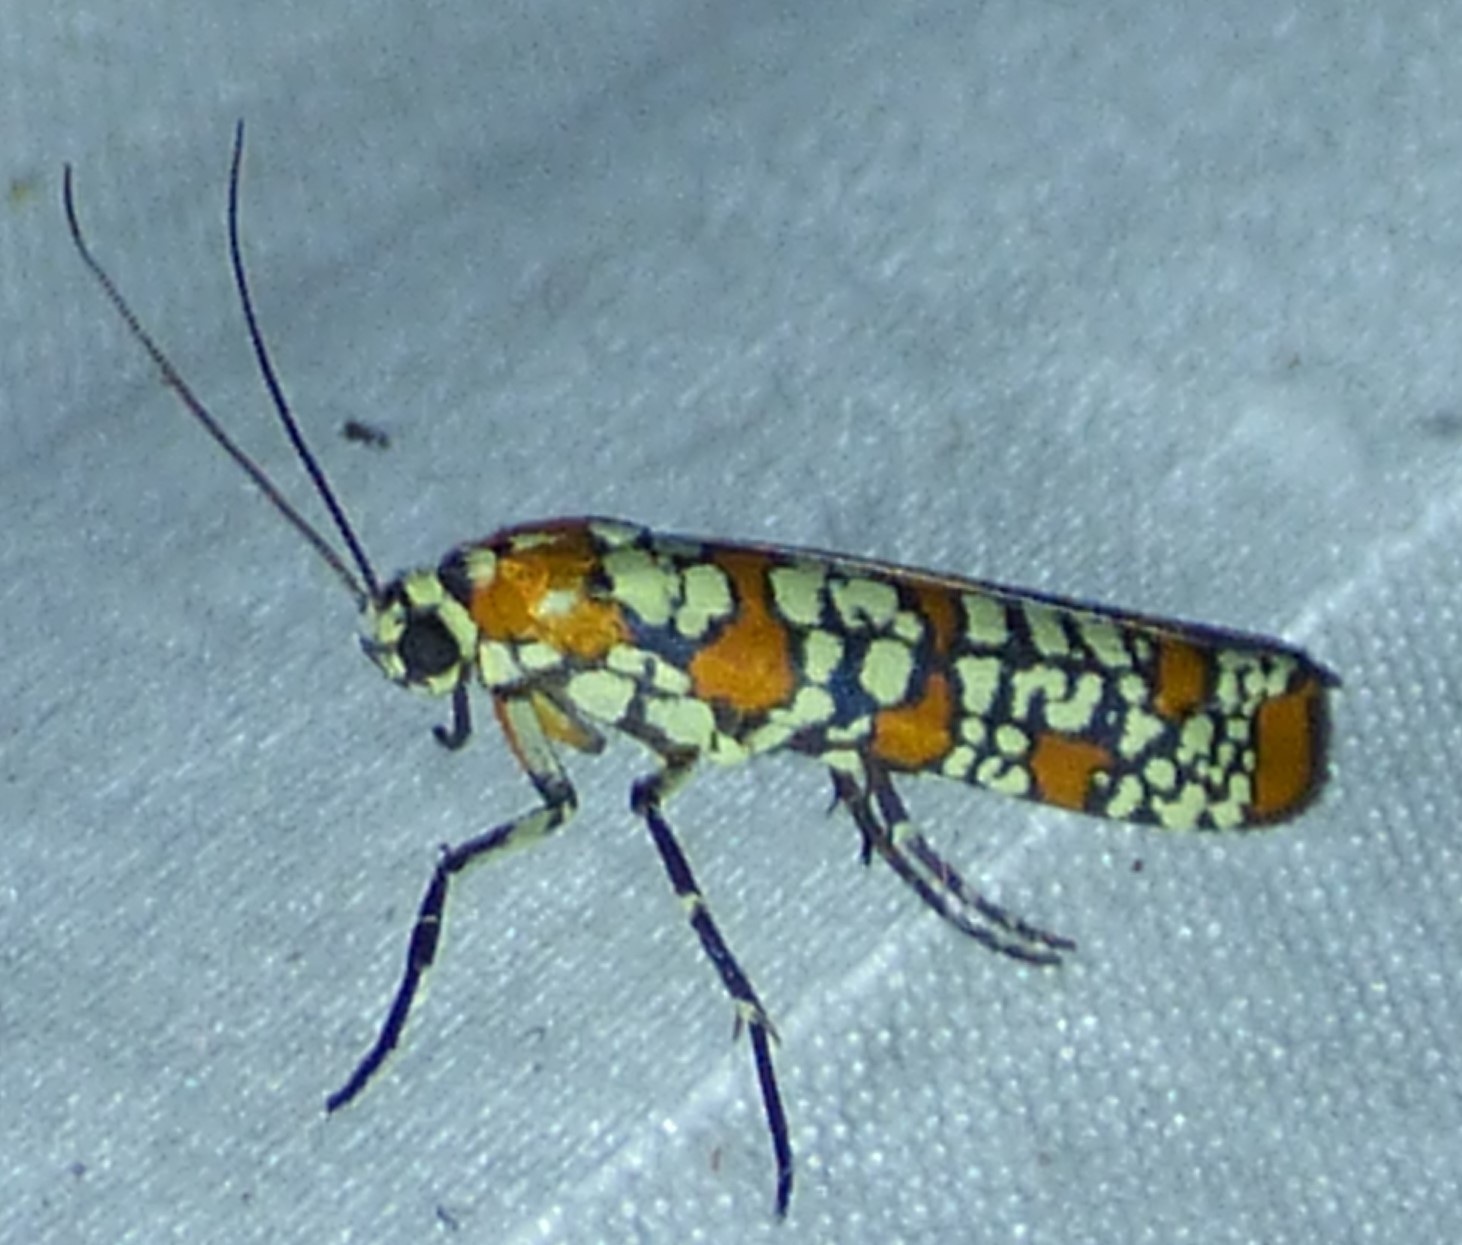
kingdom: Animalia
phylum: Arthropoda
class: Insecta
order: Lepidoptera
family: Attevidae
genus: Atteva
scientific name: Atteva punctella
